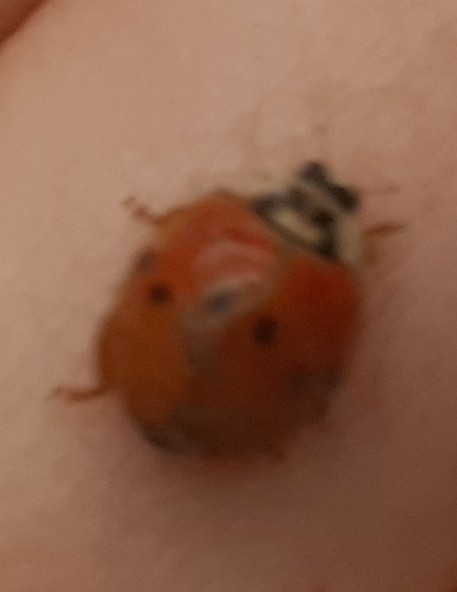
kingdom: Animalia
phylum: Arthropoda
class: Insecta
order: Coleoptera
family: Coccinellidae
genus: Harmonia
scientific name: Harmonia axyridis
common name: Harlequin ladybird
